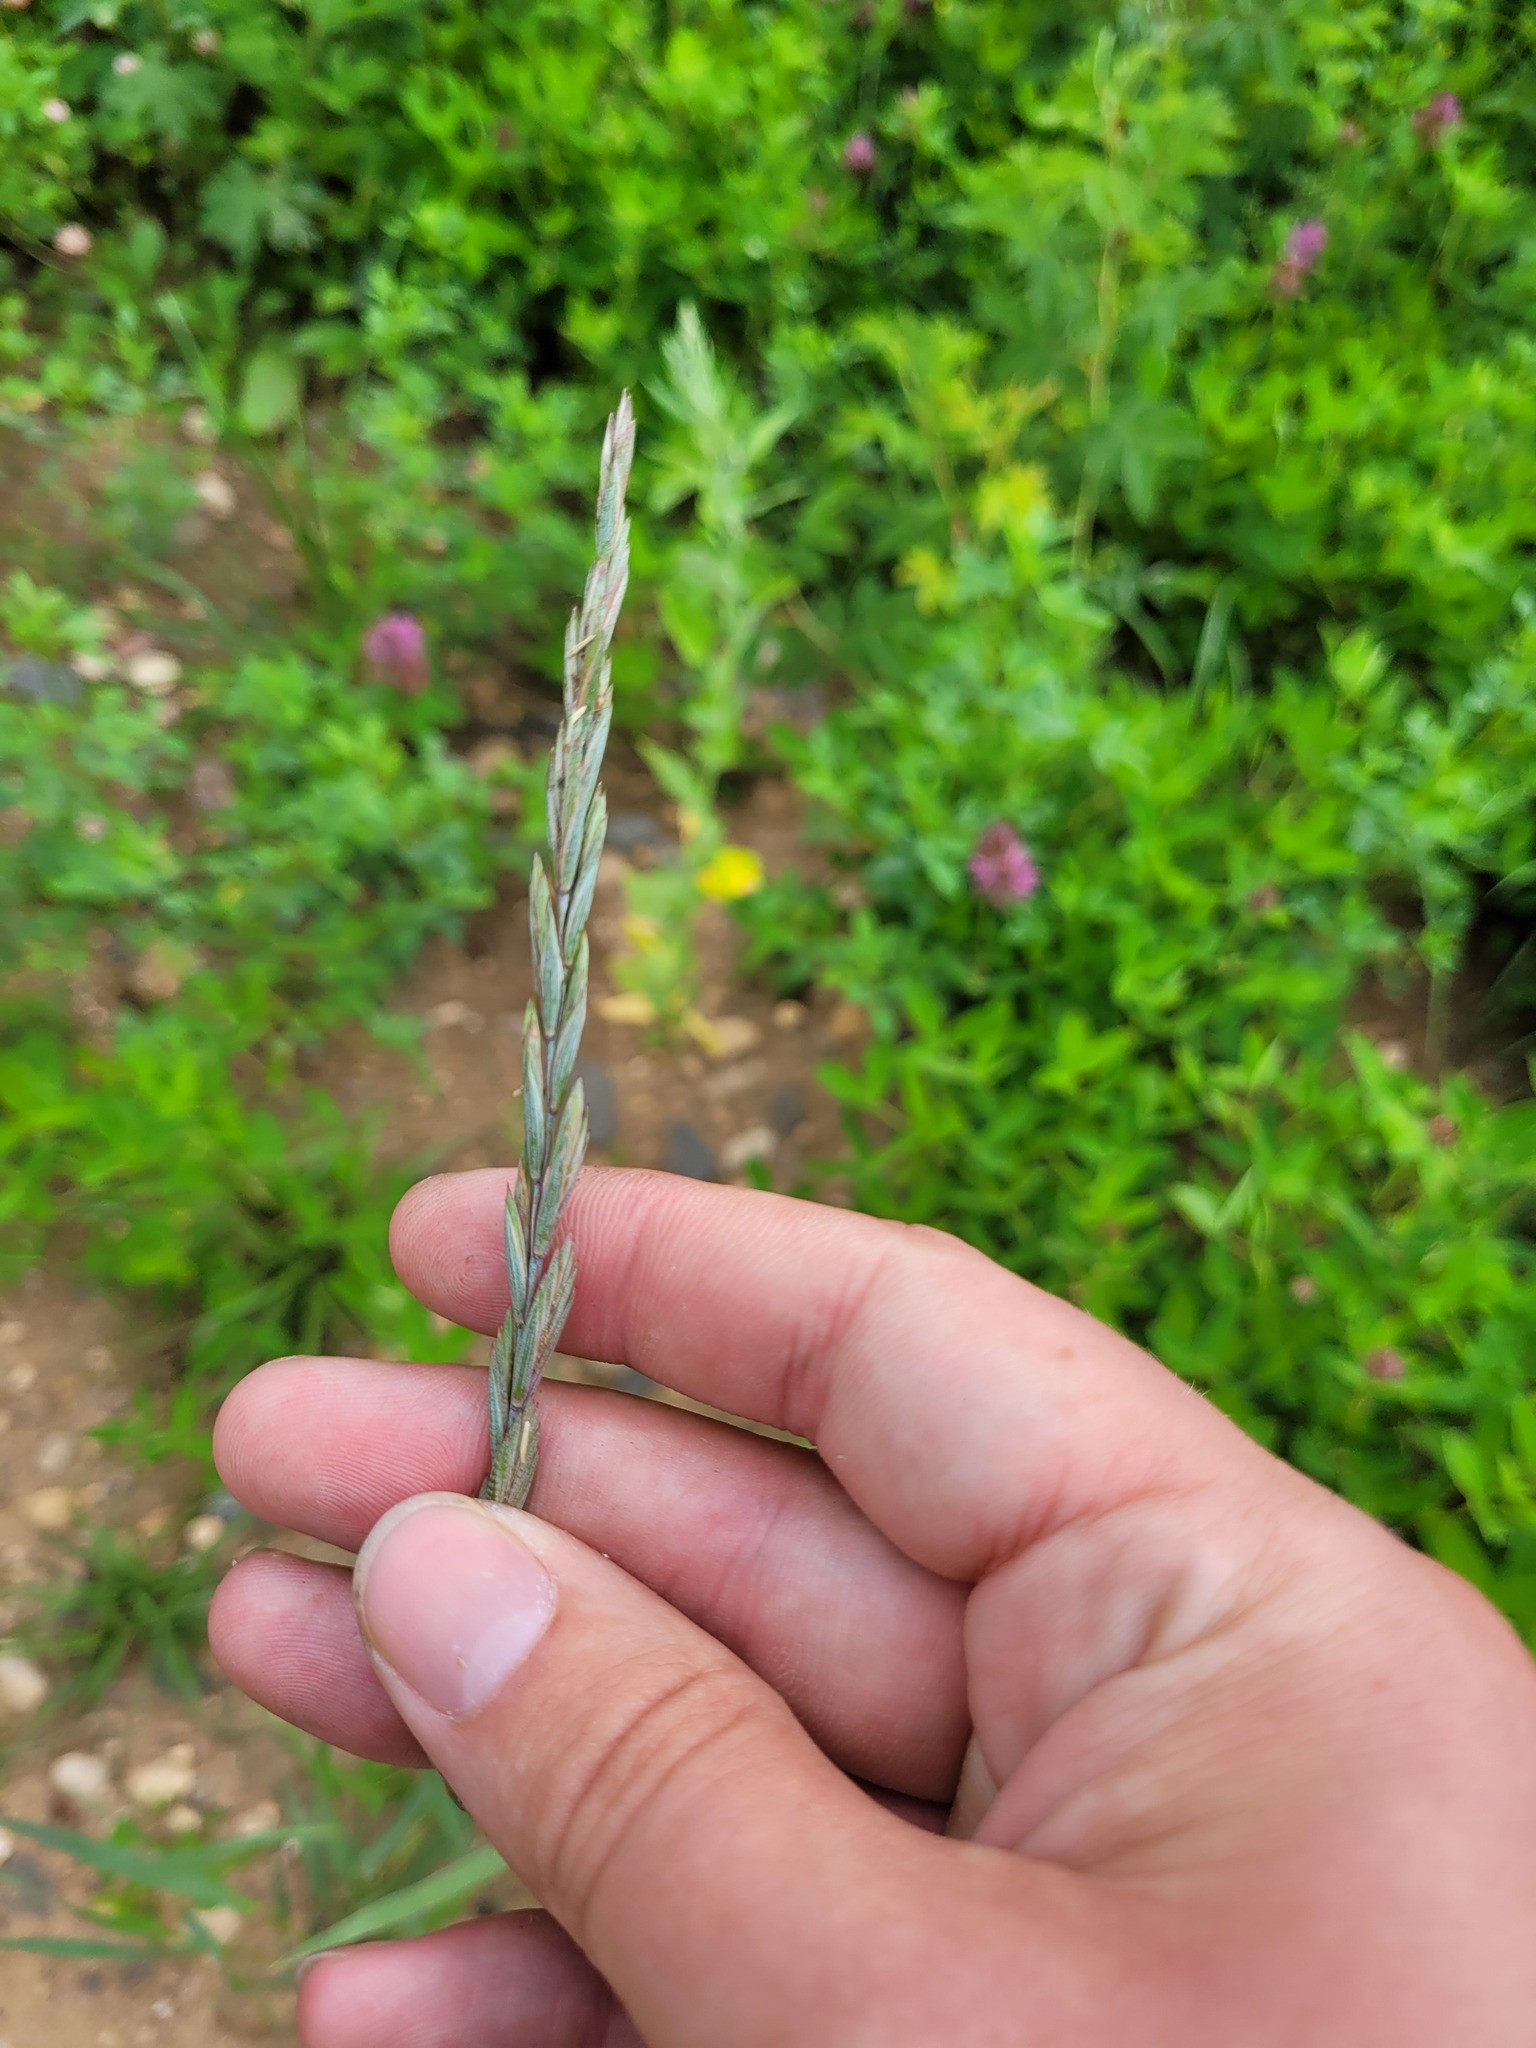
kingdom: Plantae
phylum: Tracheophyta
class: Liliopsida
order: Poales
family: Poaceae
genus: Elymus
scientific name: Elymus repens
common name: Quackgrass
